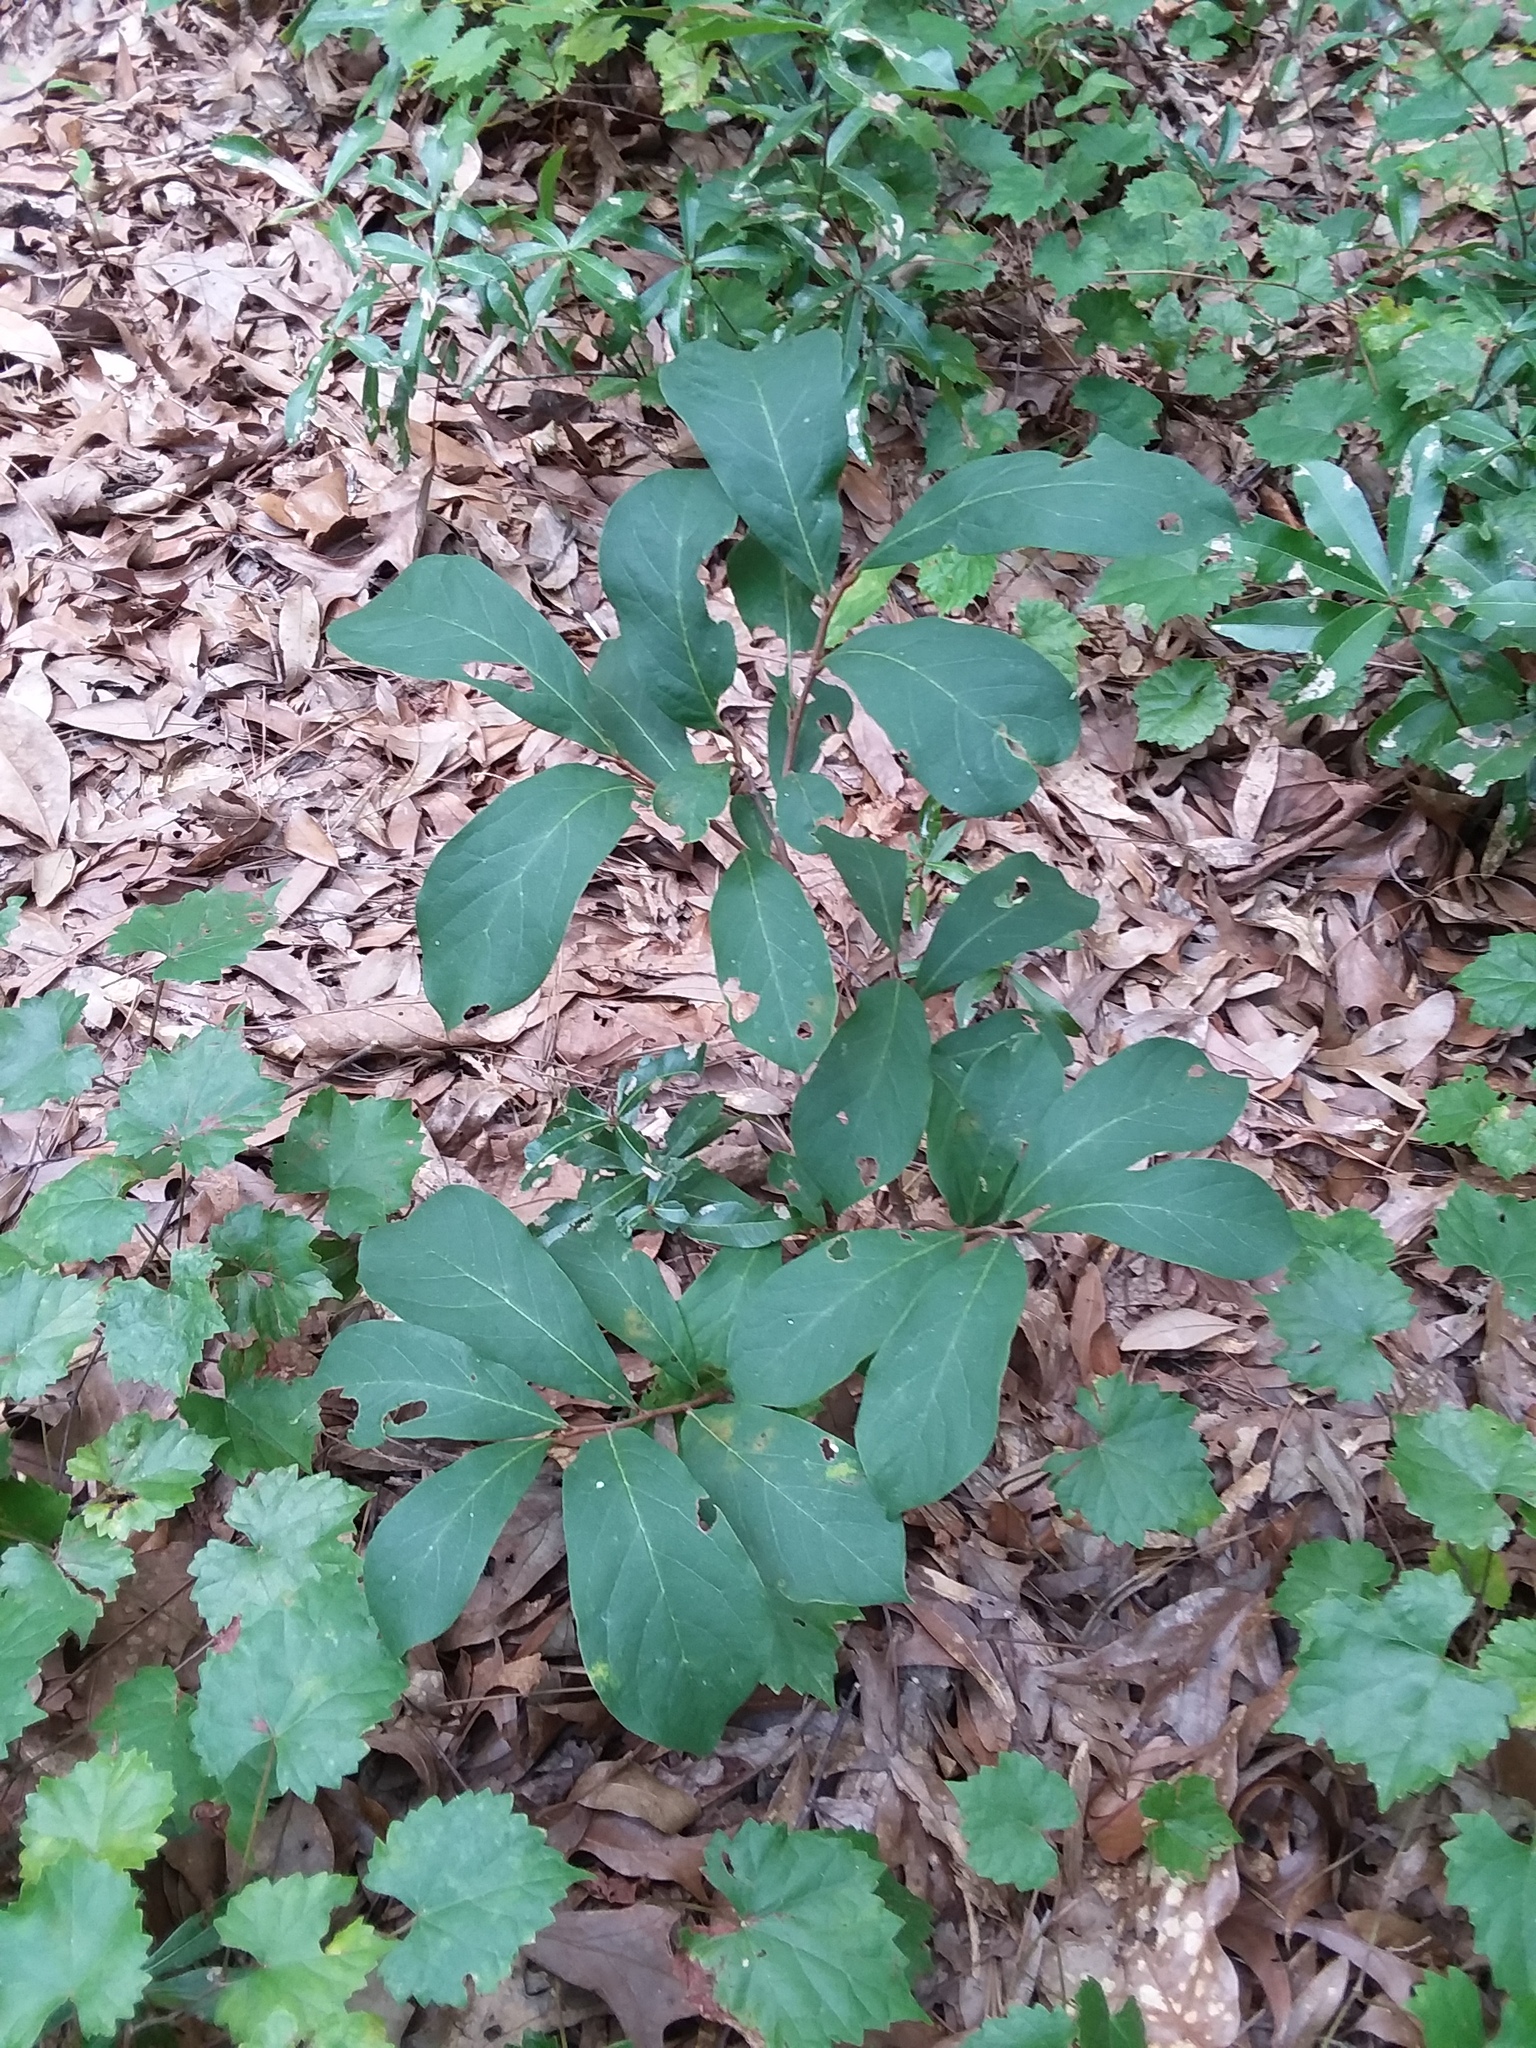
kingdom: Plantae
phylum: Tracheophyta
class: Magnoliopsida
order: Magnoliales
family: Annonaceae
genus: Asimina
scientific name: Asimina parviflora
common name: Dwarf pawpaw
